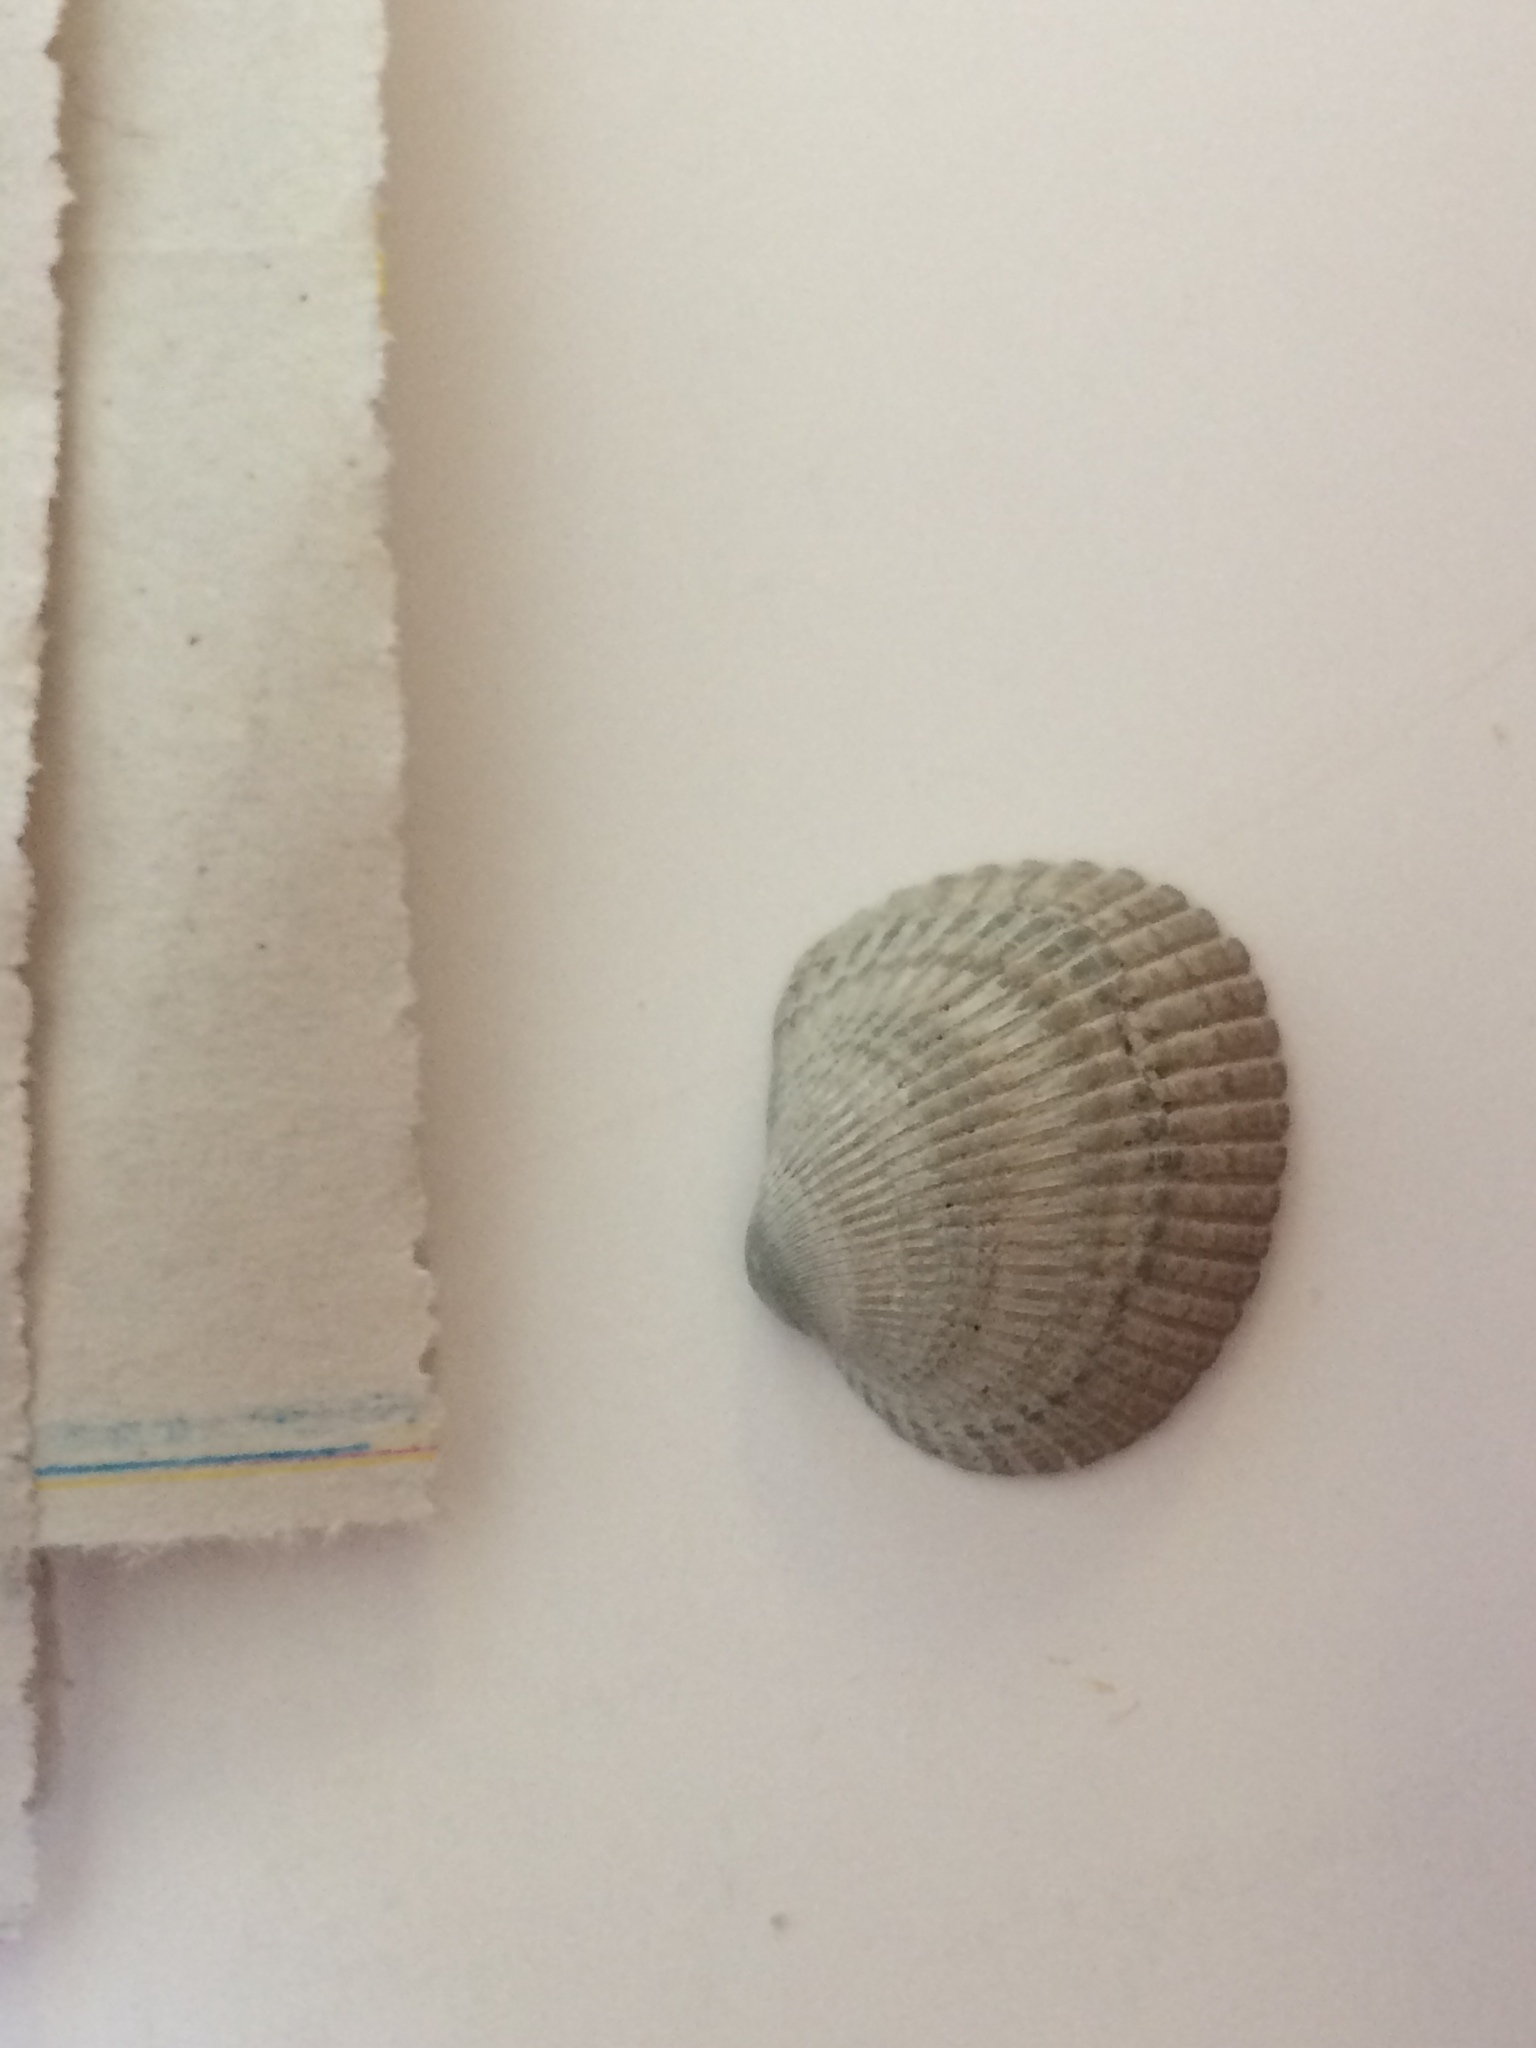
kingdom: Animalia
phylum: Mollusca
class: Bivalvia
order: Arcida
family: Arcidae
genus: Lunarca
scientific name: Lunarca ovalis
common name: Blood ark
